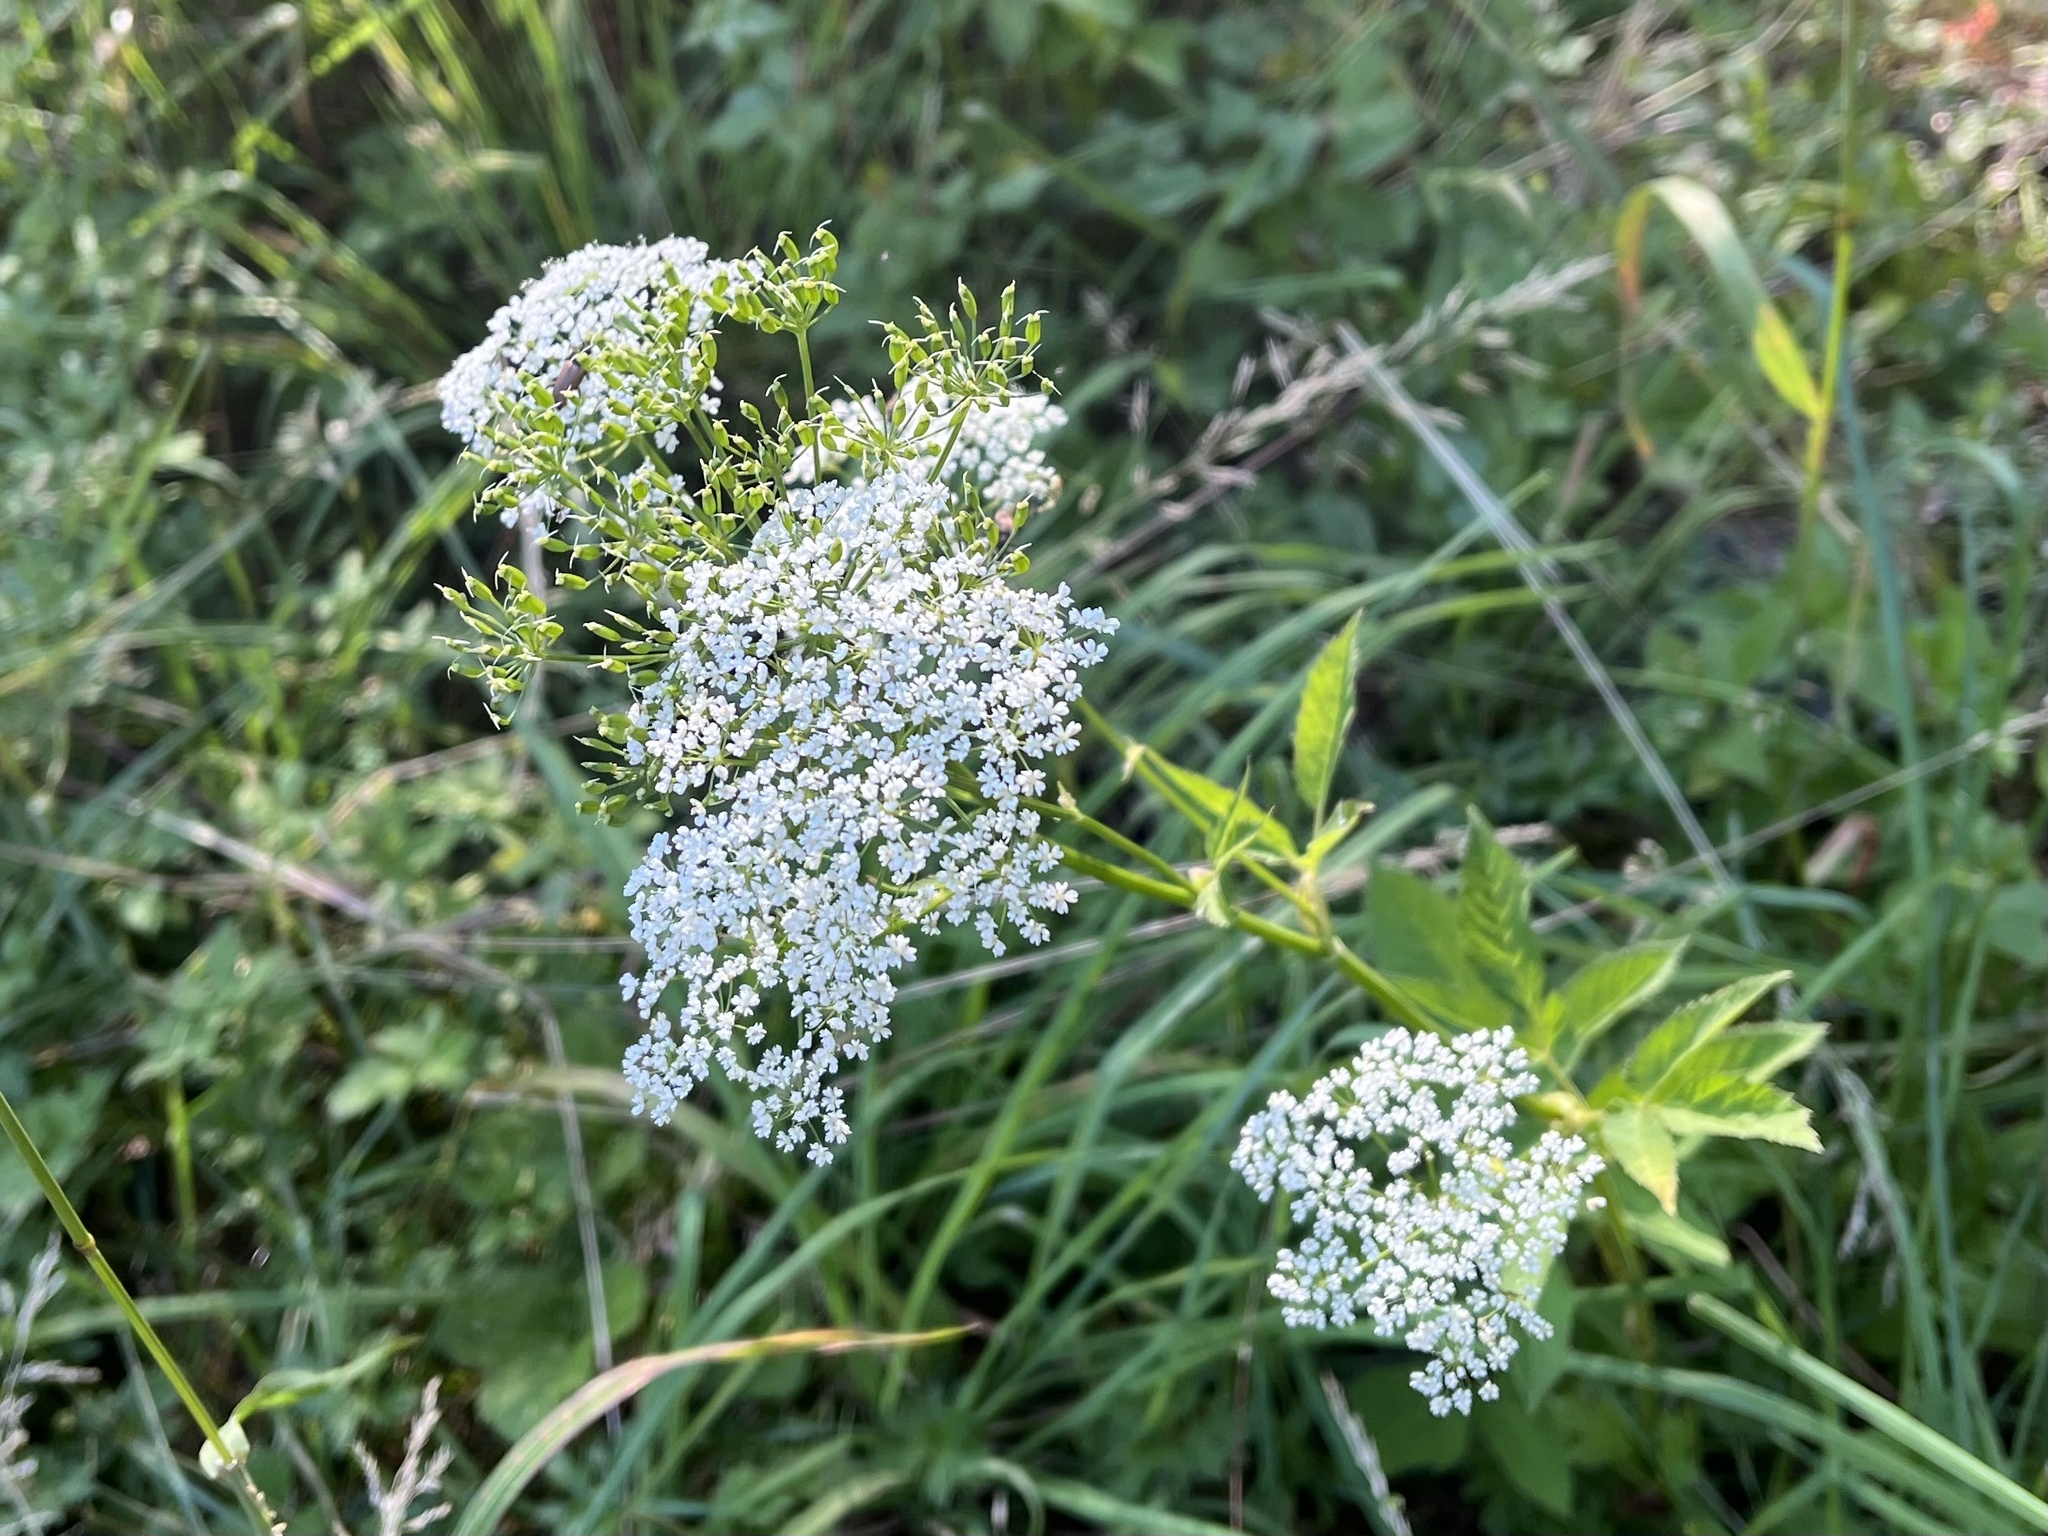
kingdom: Plantae
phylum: Tracheophyta
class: Magnoliopsida
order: Apiales
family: Apiaceae
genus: Aegopodium
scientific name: Aegopodium podagraria
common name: Ground-elder
